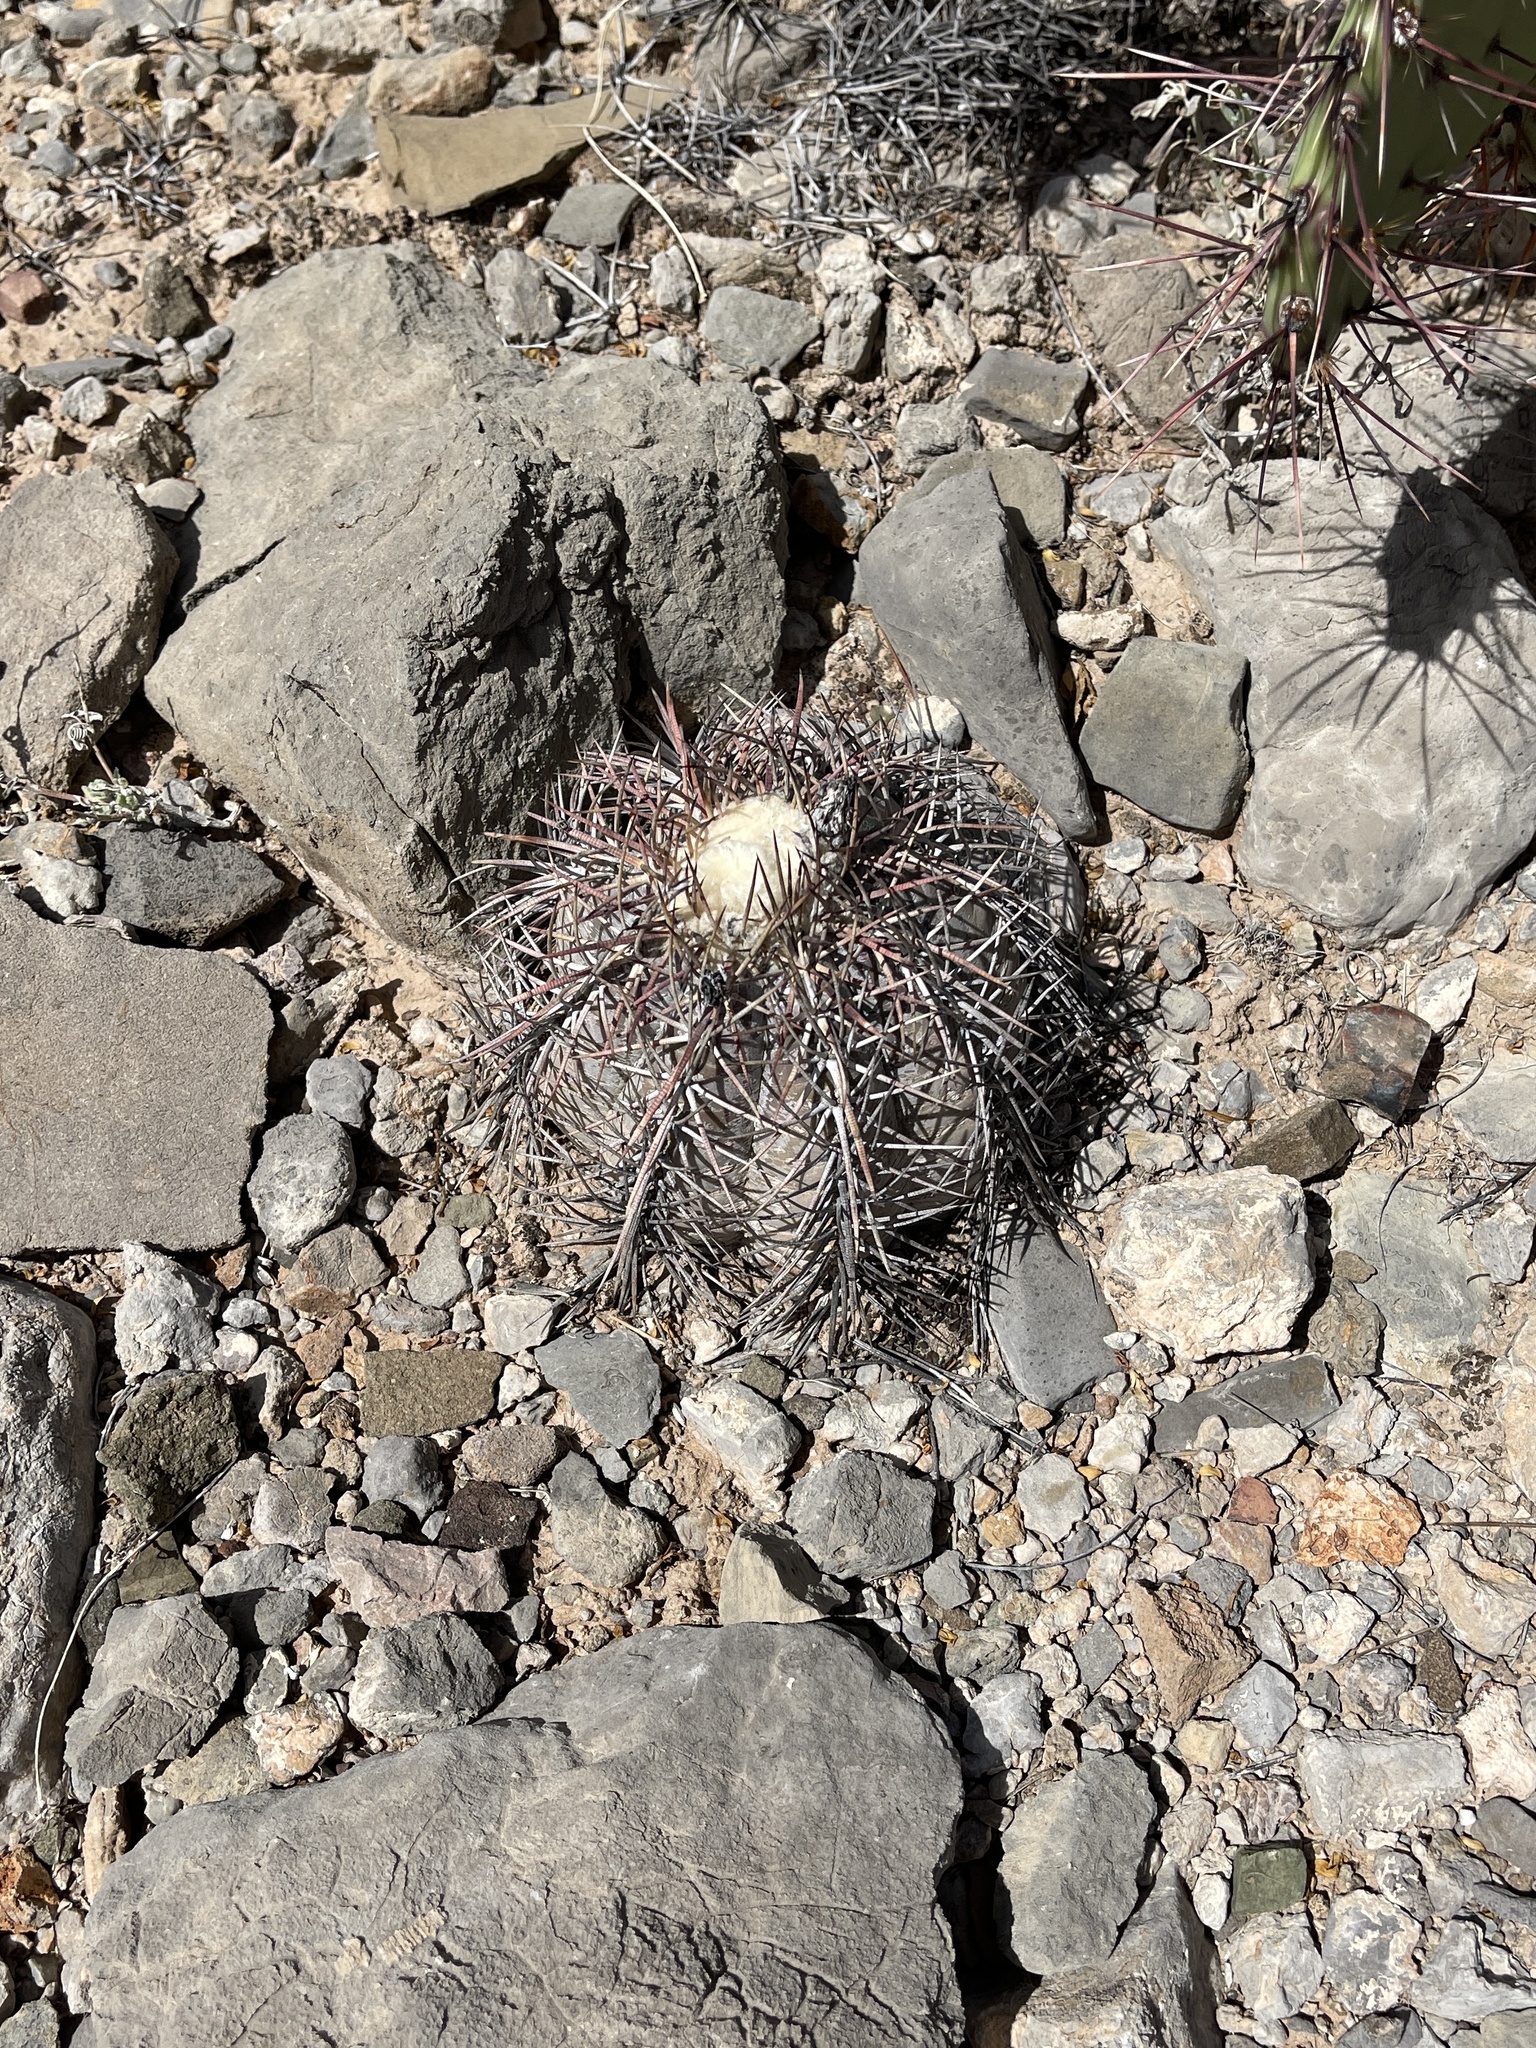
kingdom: Plantae
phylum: Tracheophyta
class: Magnoliopsida
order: Caryophyllales
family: Cactaceae
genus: Echinocactus
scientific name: Echinocactus horizonthalonius
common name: Devilshead
